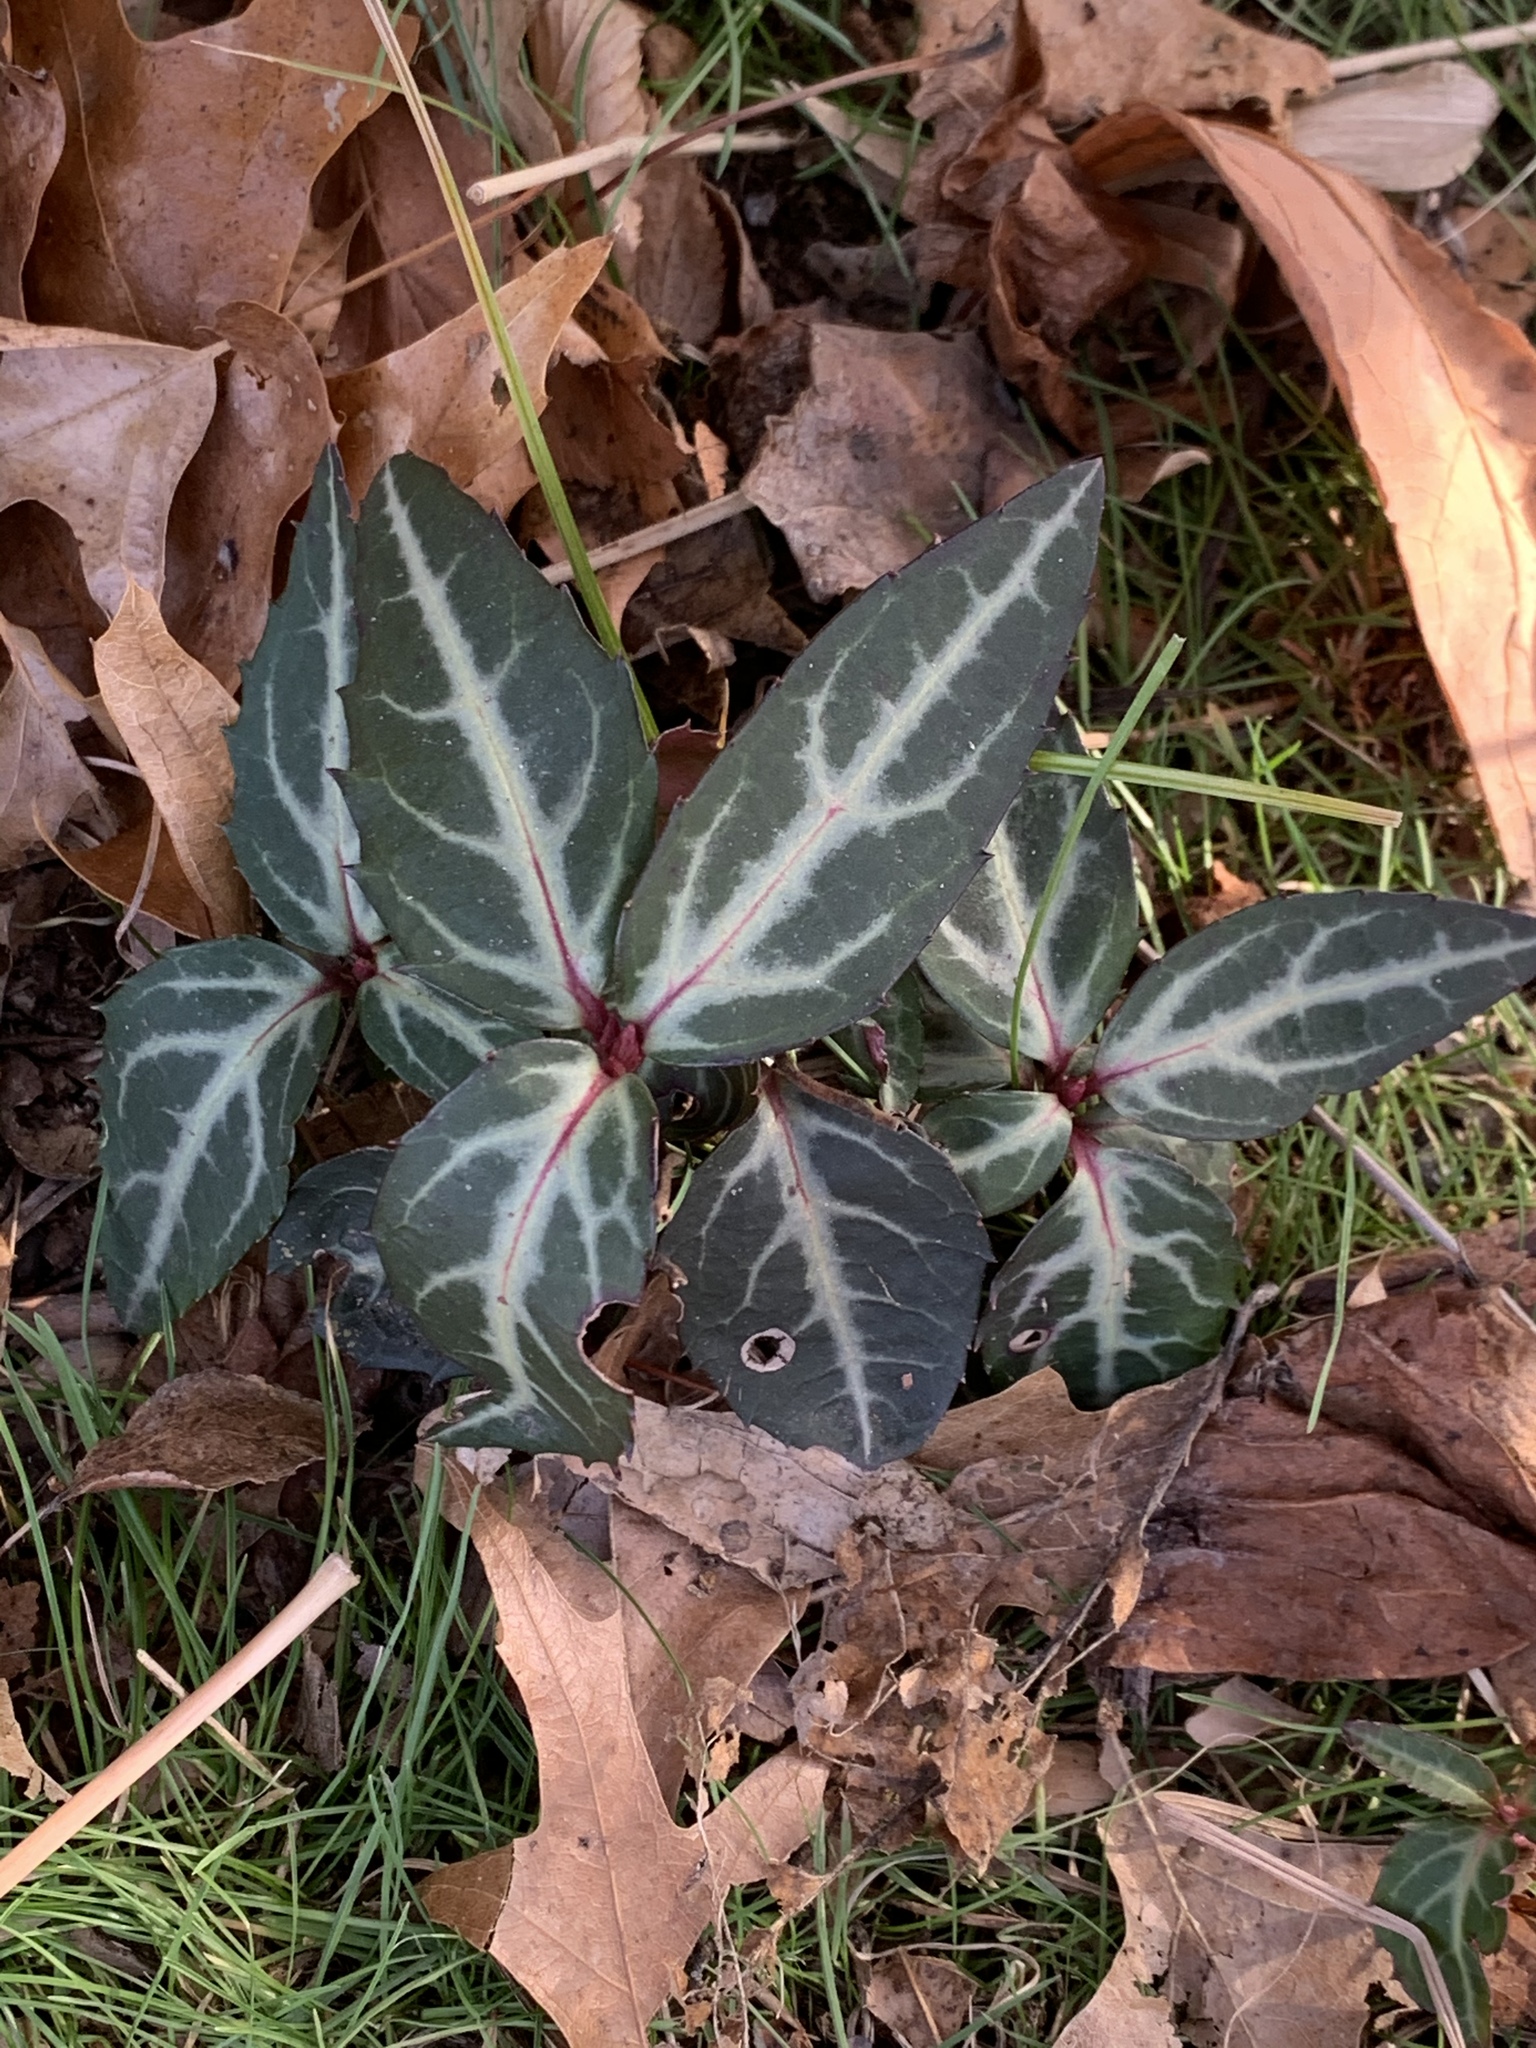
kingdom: Plantae
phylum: Tracheophyta
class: Magnoliopsida
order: Ericales
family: Ericaceae
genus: Chimaphila
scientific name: Chimaphila maculata
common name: Spotted pipsissewa
